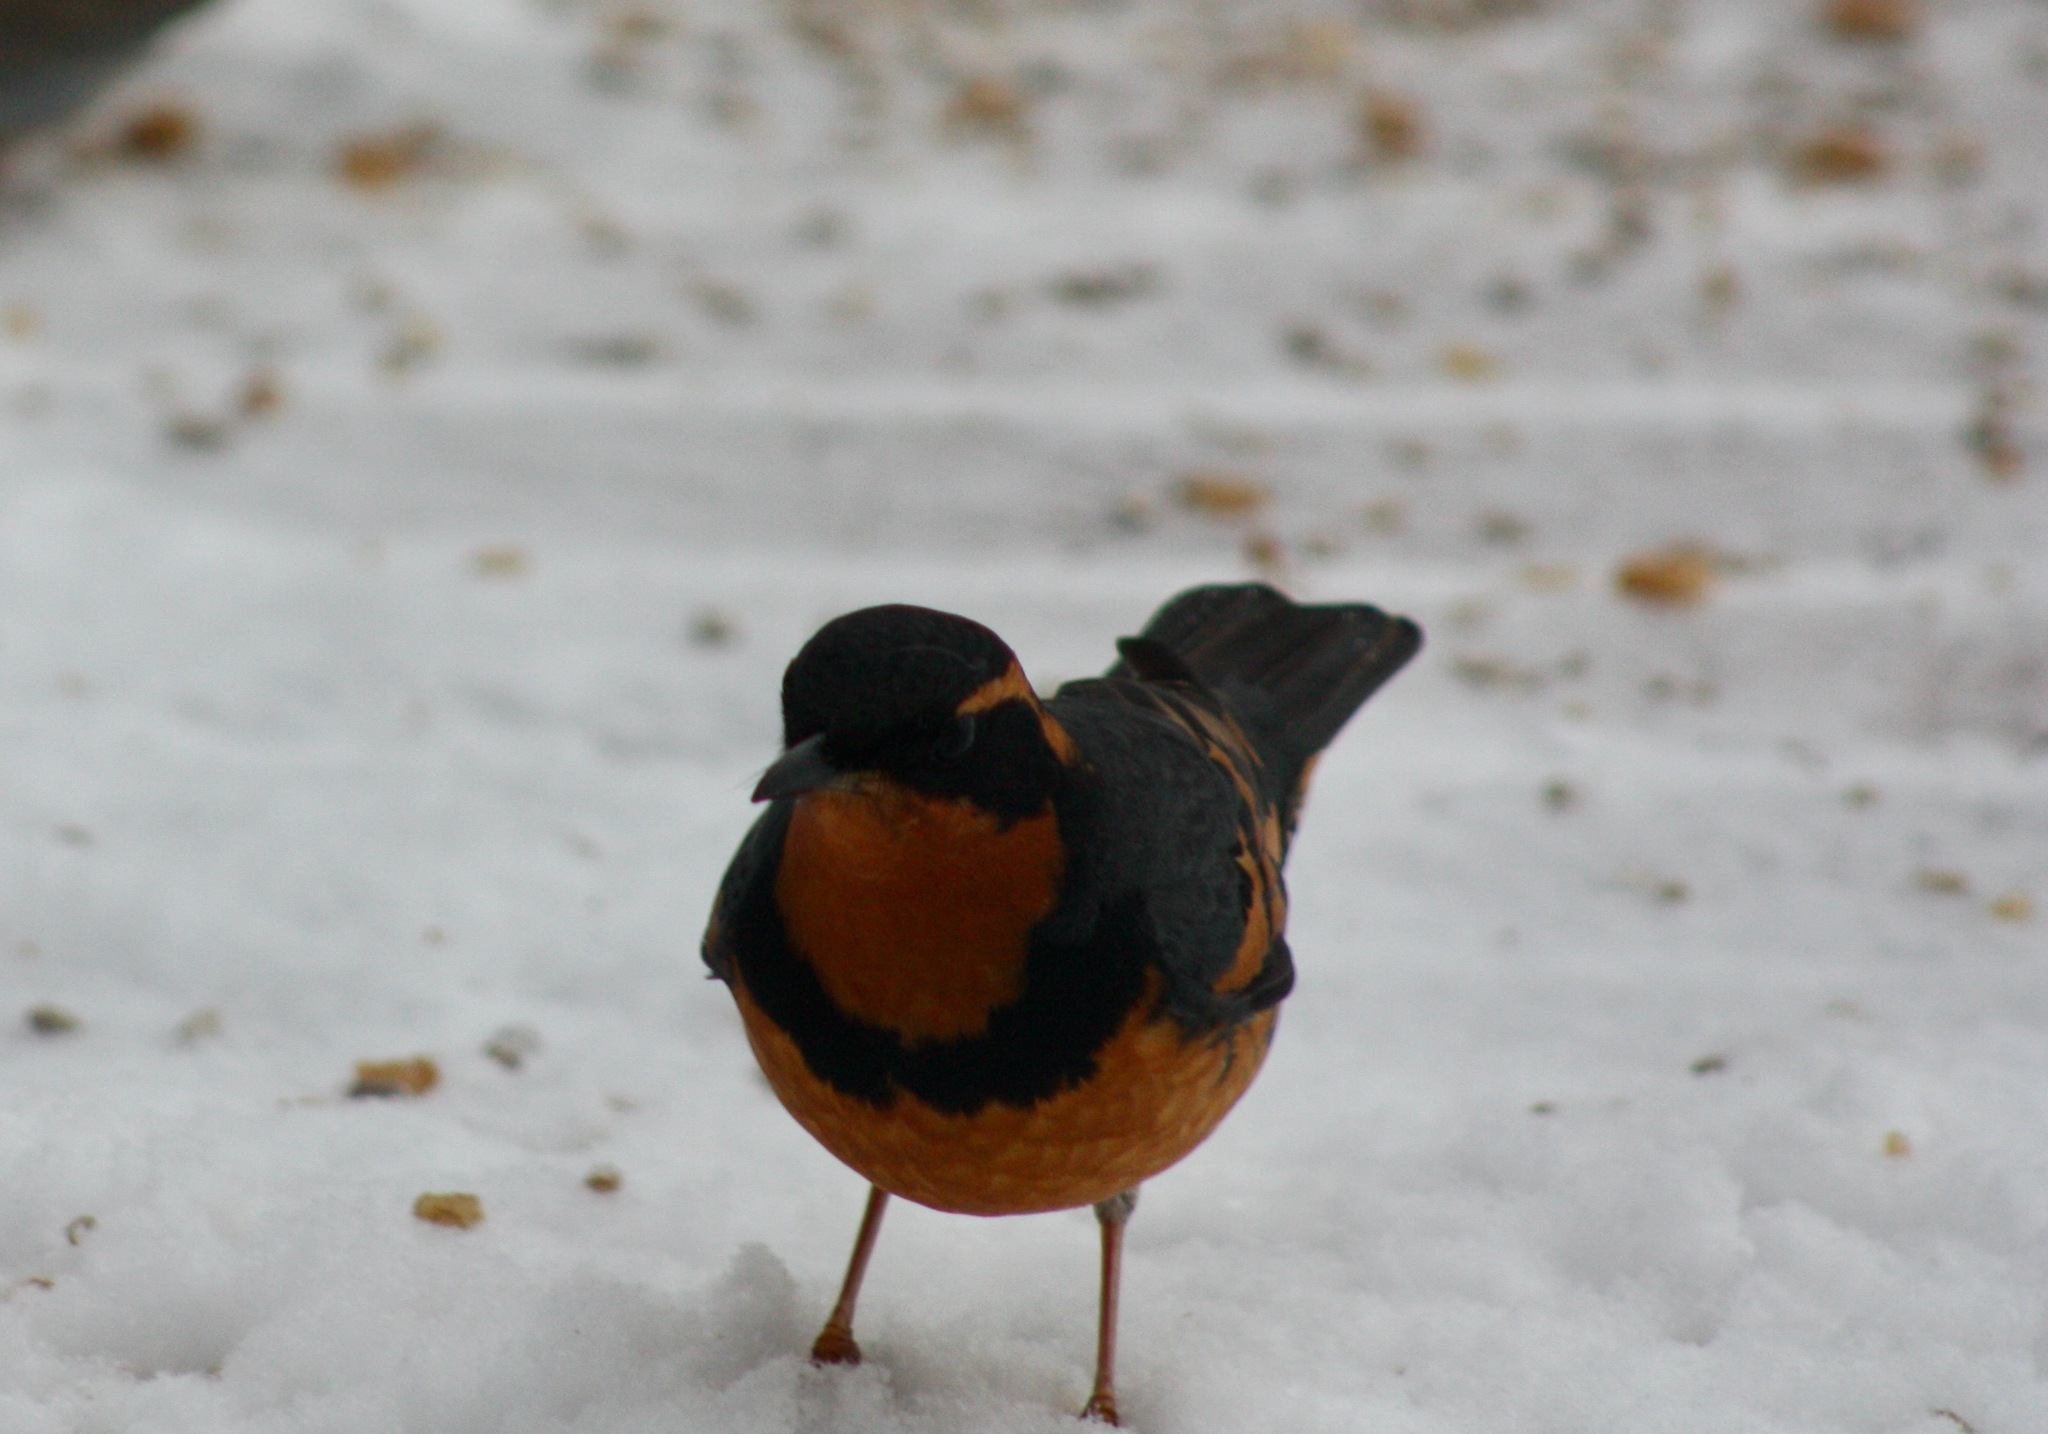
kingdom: Animalia
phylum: Chordata
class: Aves
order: Passeriformes
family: Turdidae
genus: Ixoreus
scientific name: Ixoreus naevius
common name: Varied thrush
